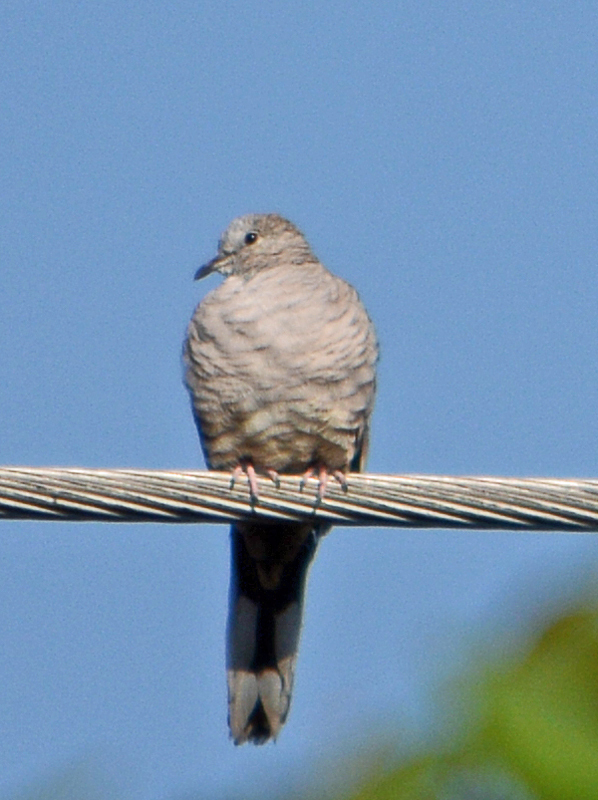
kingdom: Animalia
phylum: Chordata
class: Aves
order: Columbiformes
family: Columbidae
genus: Columbina
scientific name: Columbina inca
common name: Inca dove
